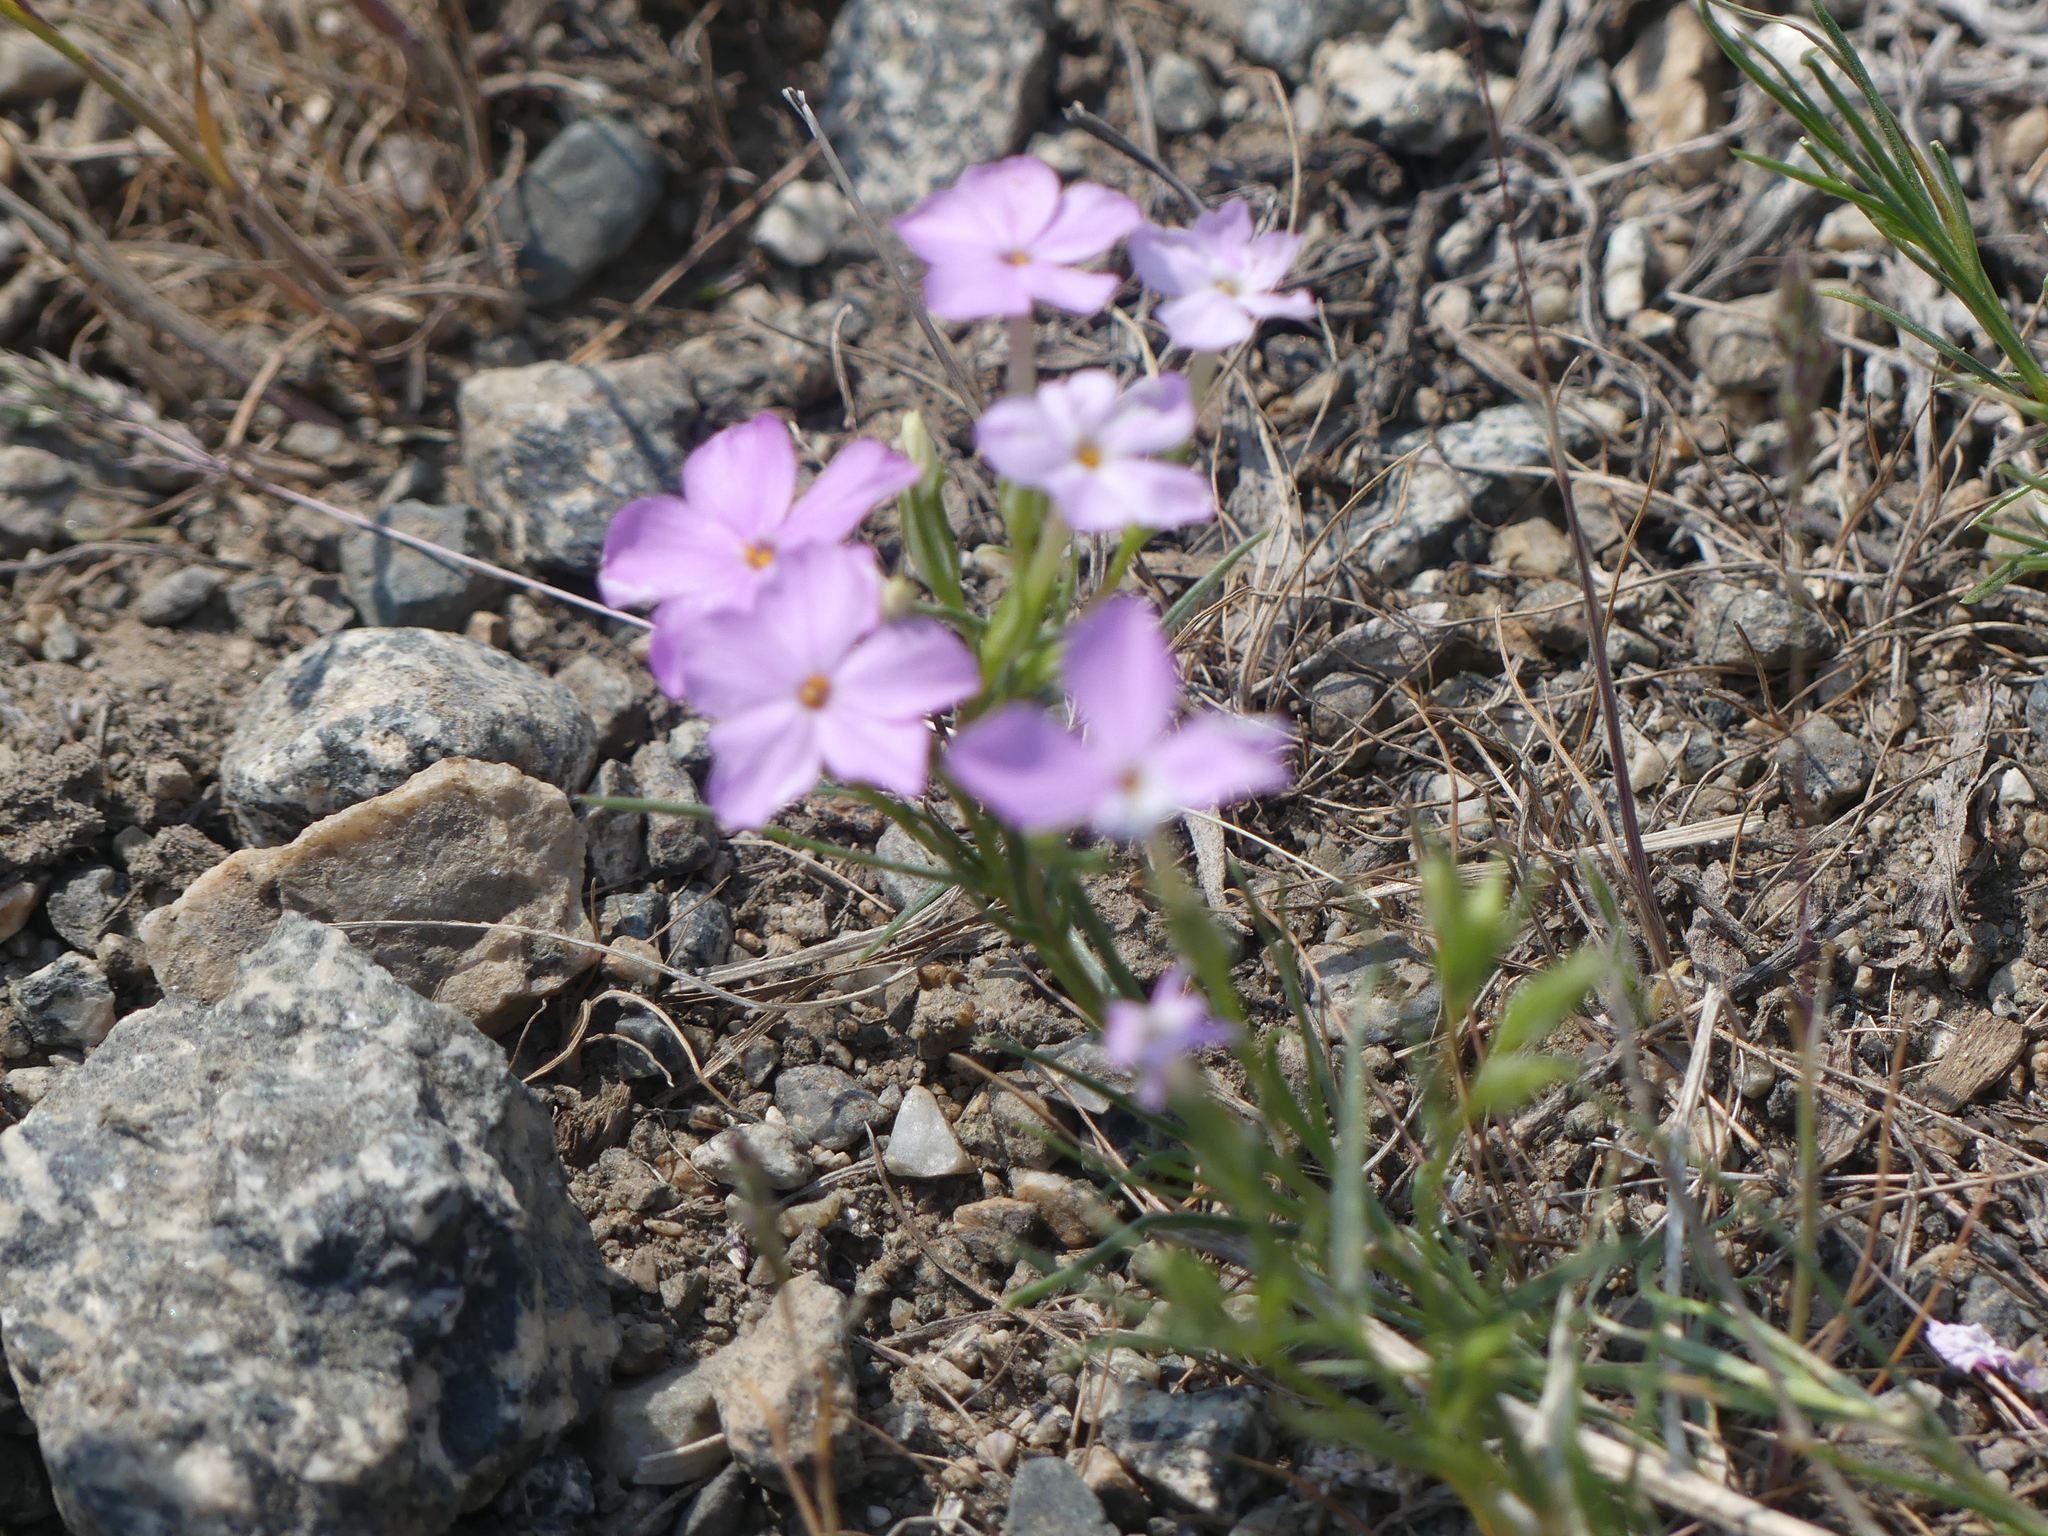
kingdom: Plantae
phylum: Tracheophyta
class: Magnoliopsida
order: Ericales
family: Polemoniaceae
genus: Phlox
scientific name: Phlox longifolia
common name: Longleaf phlox
